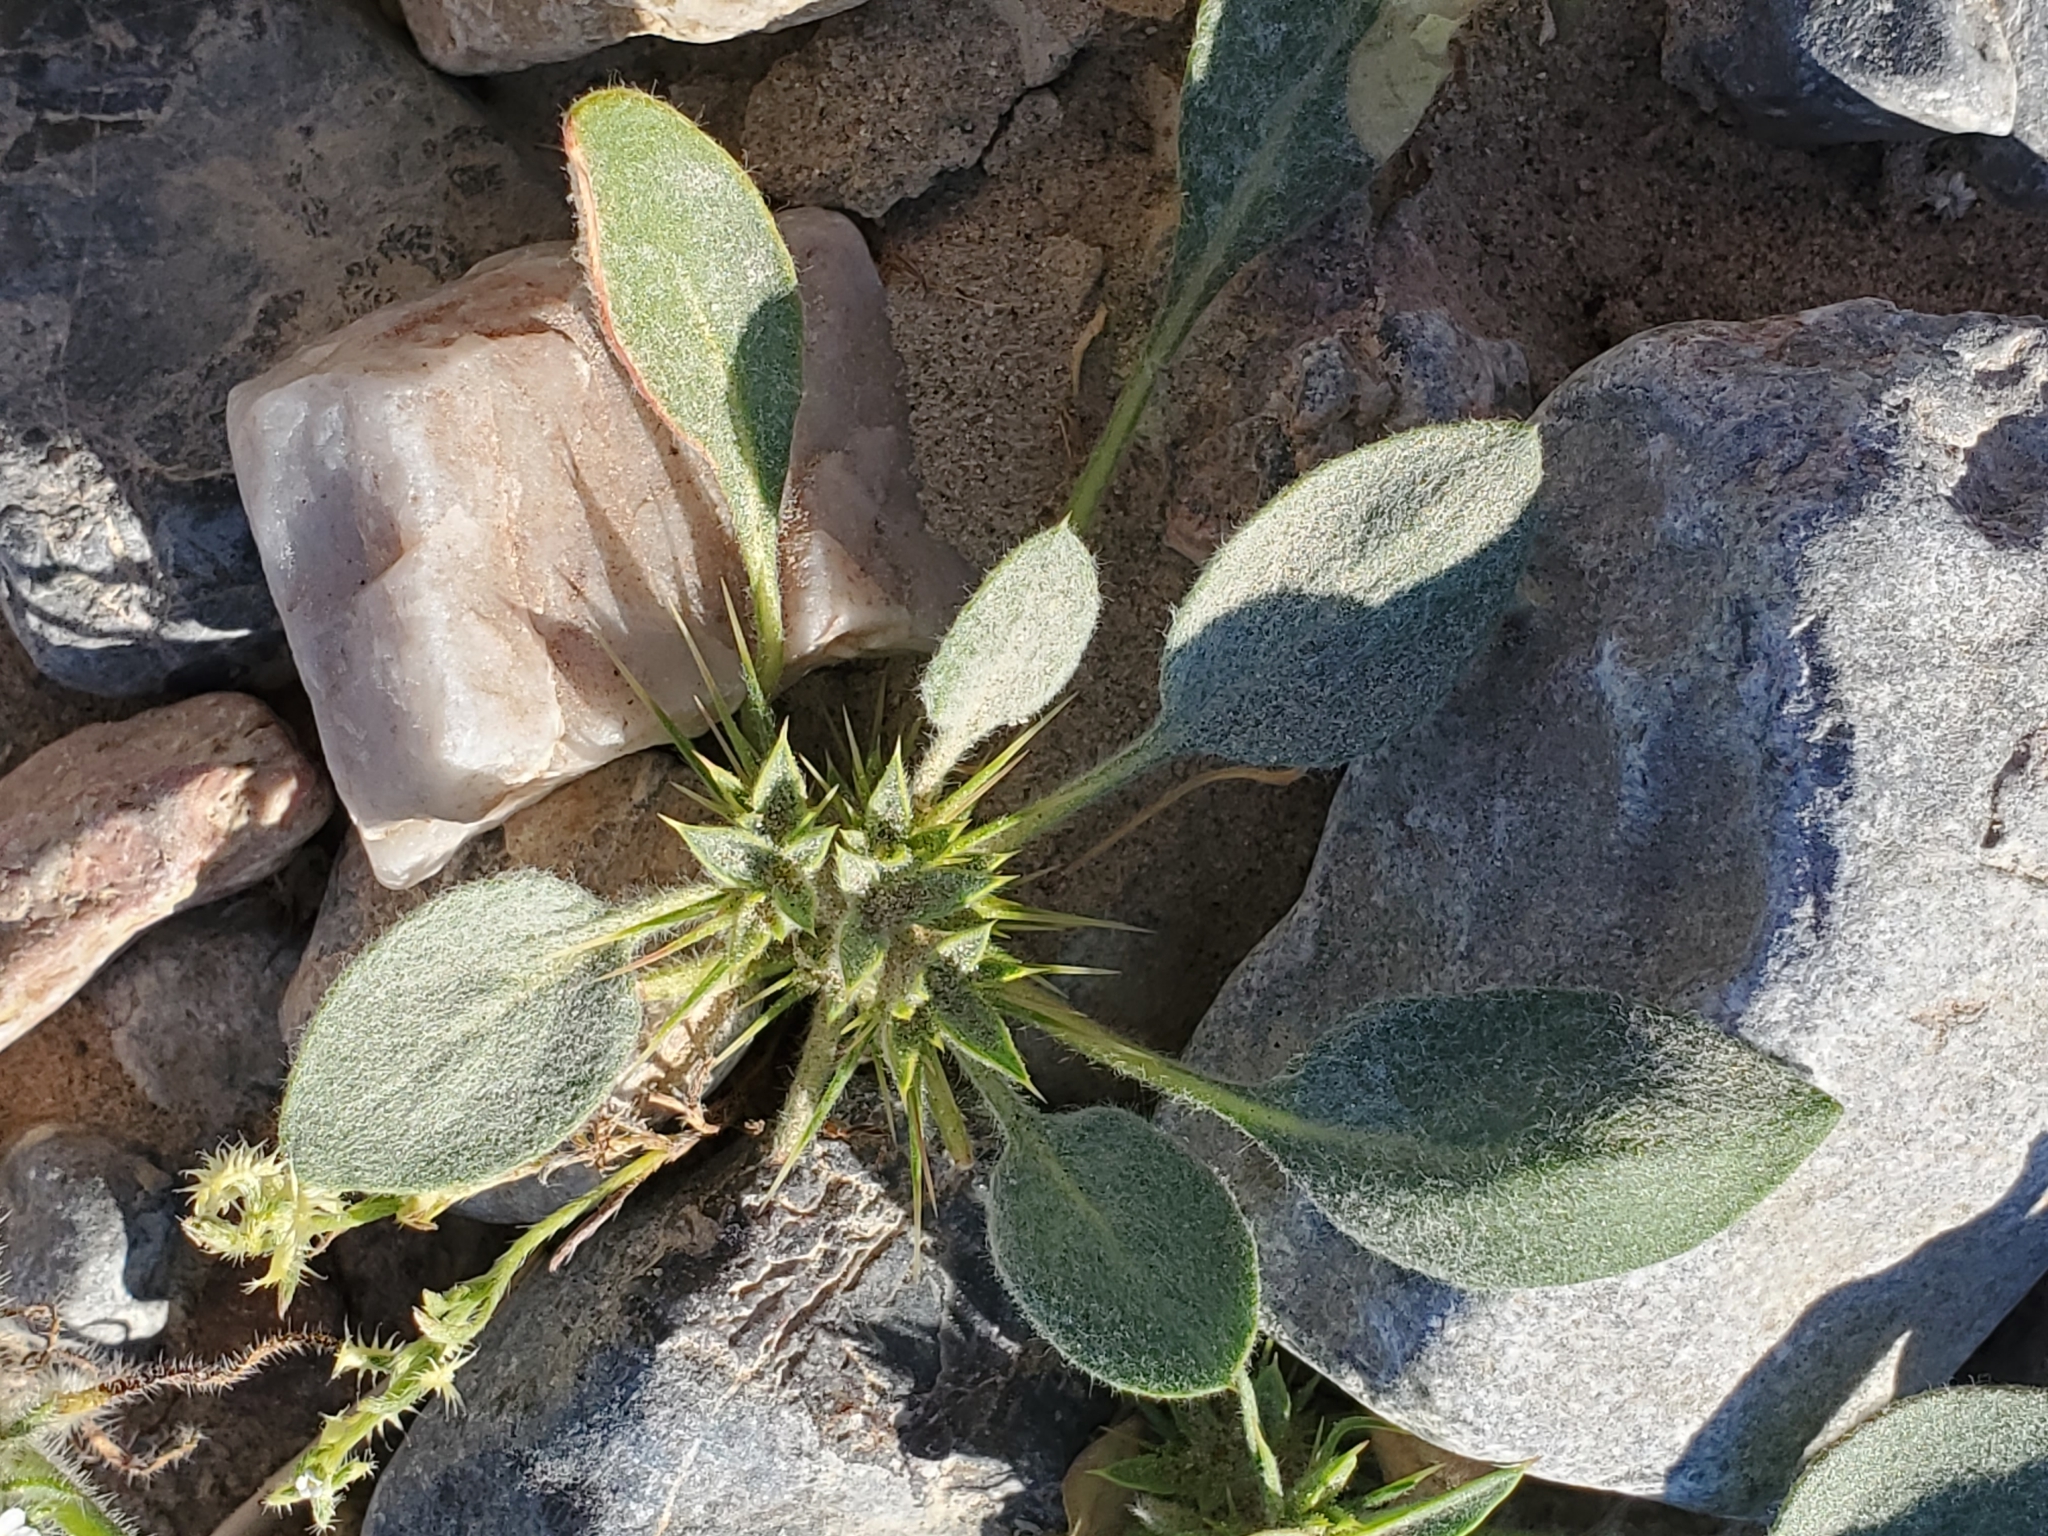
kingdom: Plantae
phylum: Tracheophyta
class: Magnoliopsida
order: Caryophyllales
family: Polygonaceae
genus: Chorizanthe
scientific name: Chorizanthe rigida
